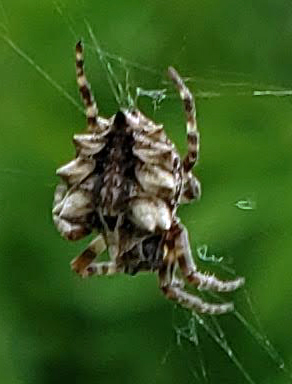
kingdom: Animalia
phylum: Arthropoda
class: Arachnida
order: Araneae
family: Araneidae
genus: Acanthepeira
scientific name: Acanthepeira stellata
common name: Starbellied orbweaver
